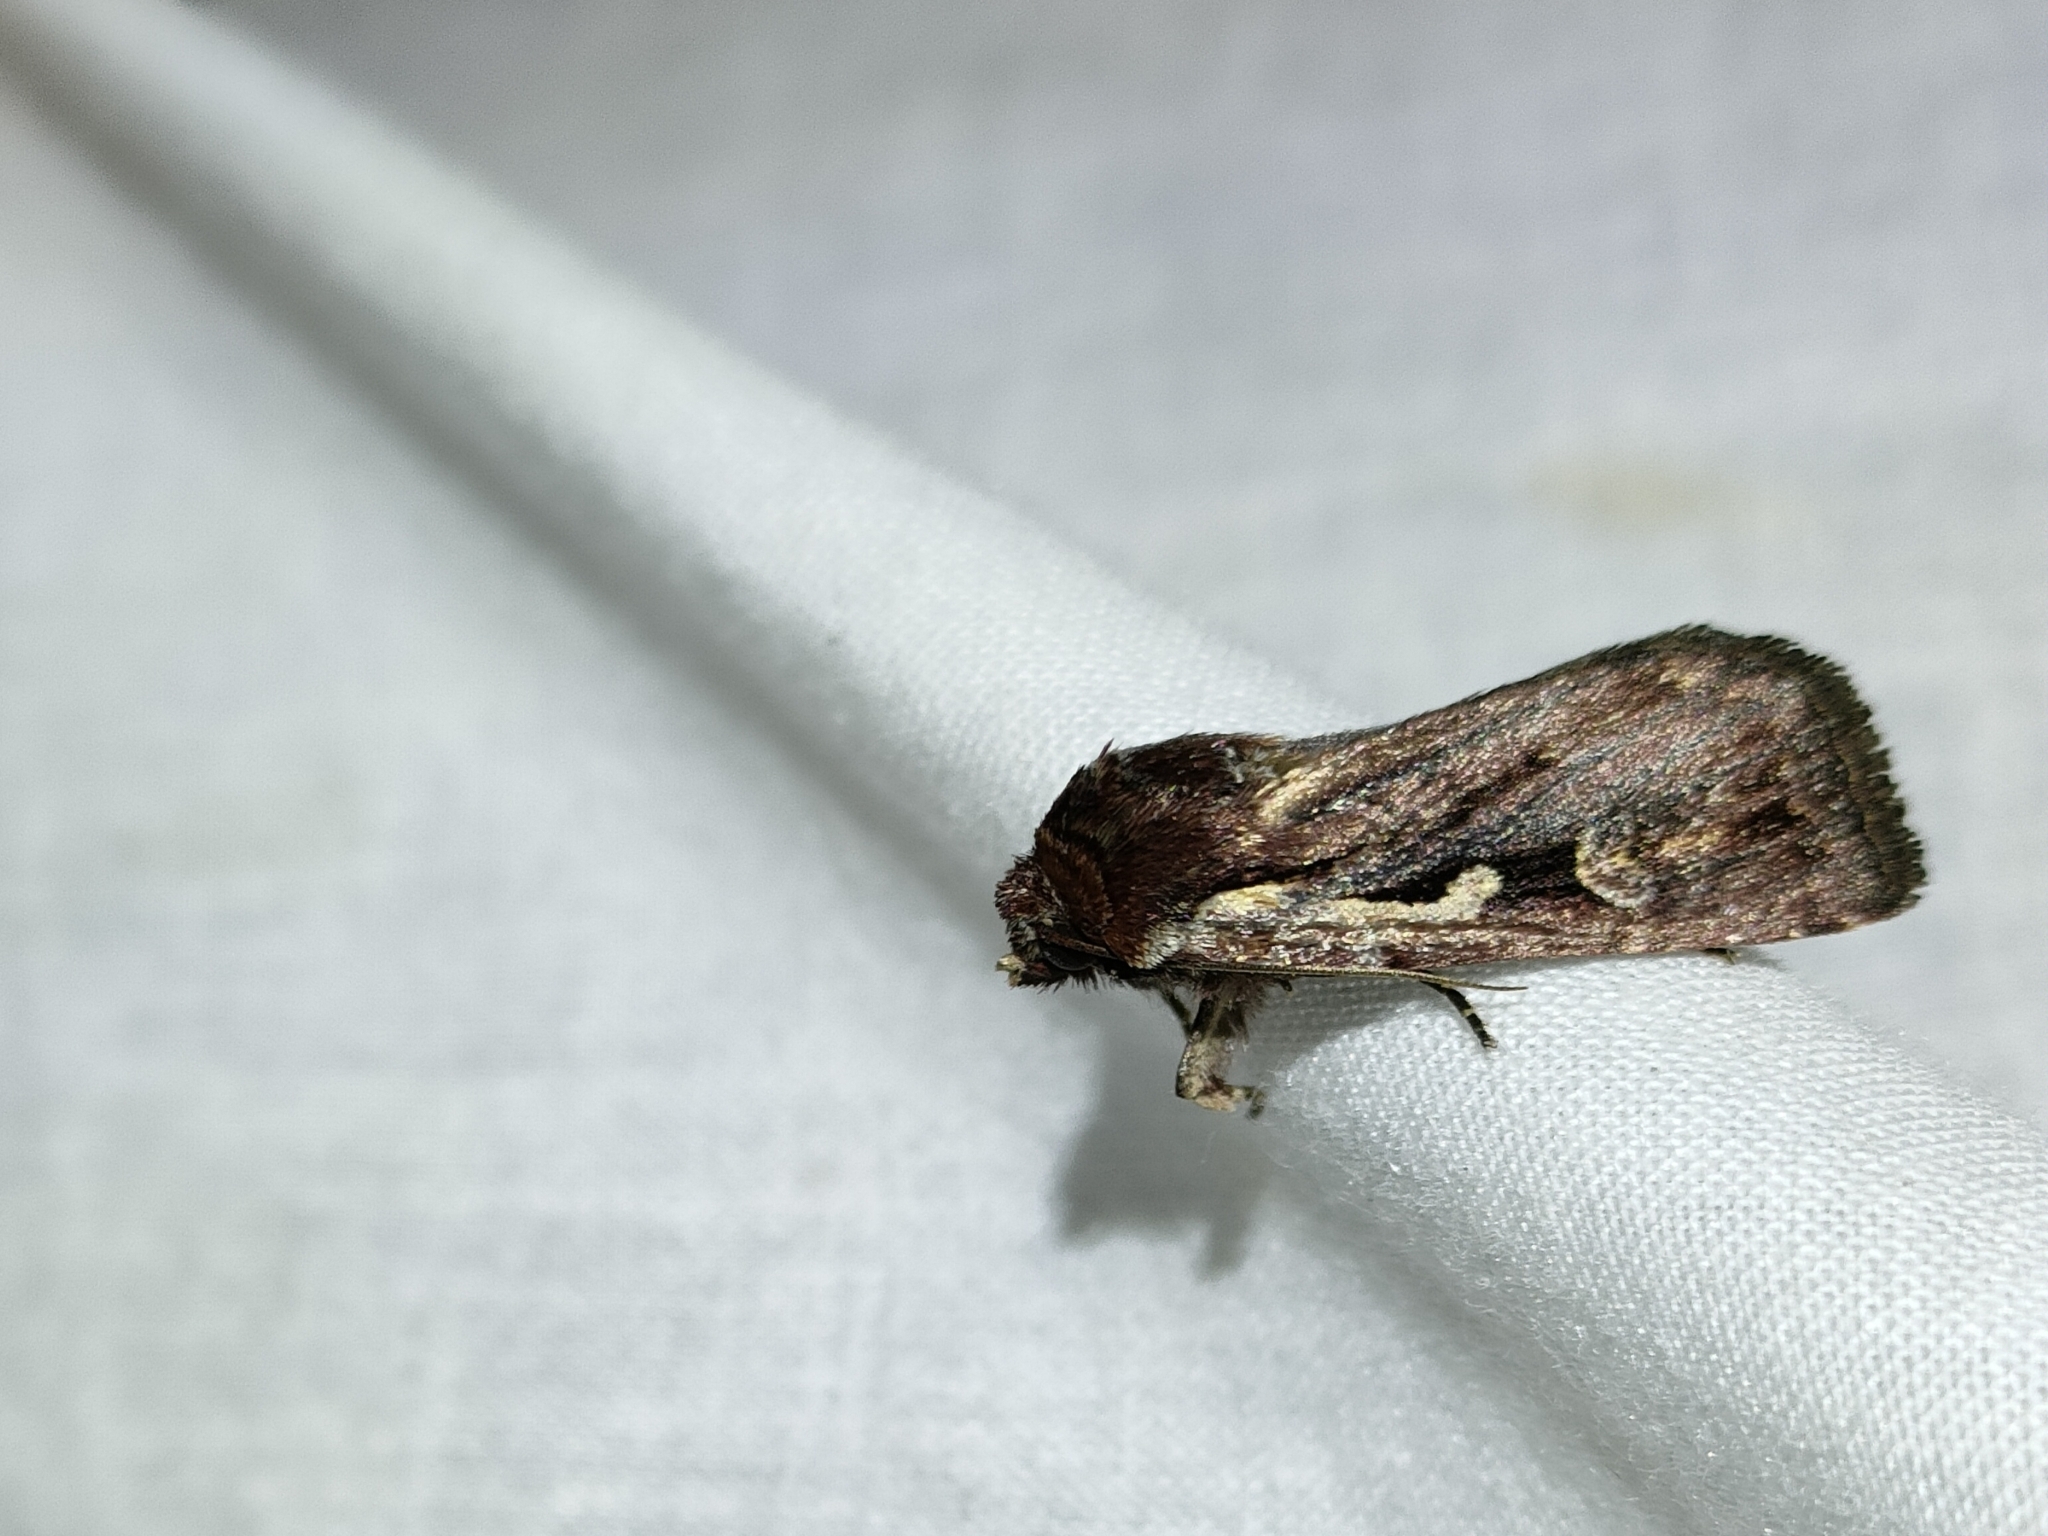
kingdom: Animalia
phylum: Arthropoda
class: Insecta
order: Lepidoptera
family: Noctuidae
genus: Xestia
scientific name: Xestia agathina
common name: Heath rustic
